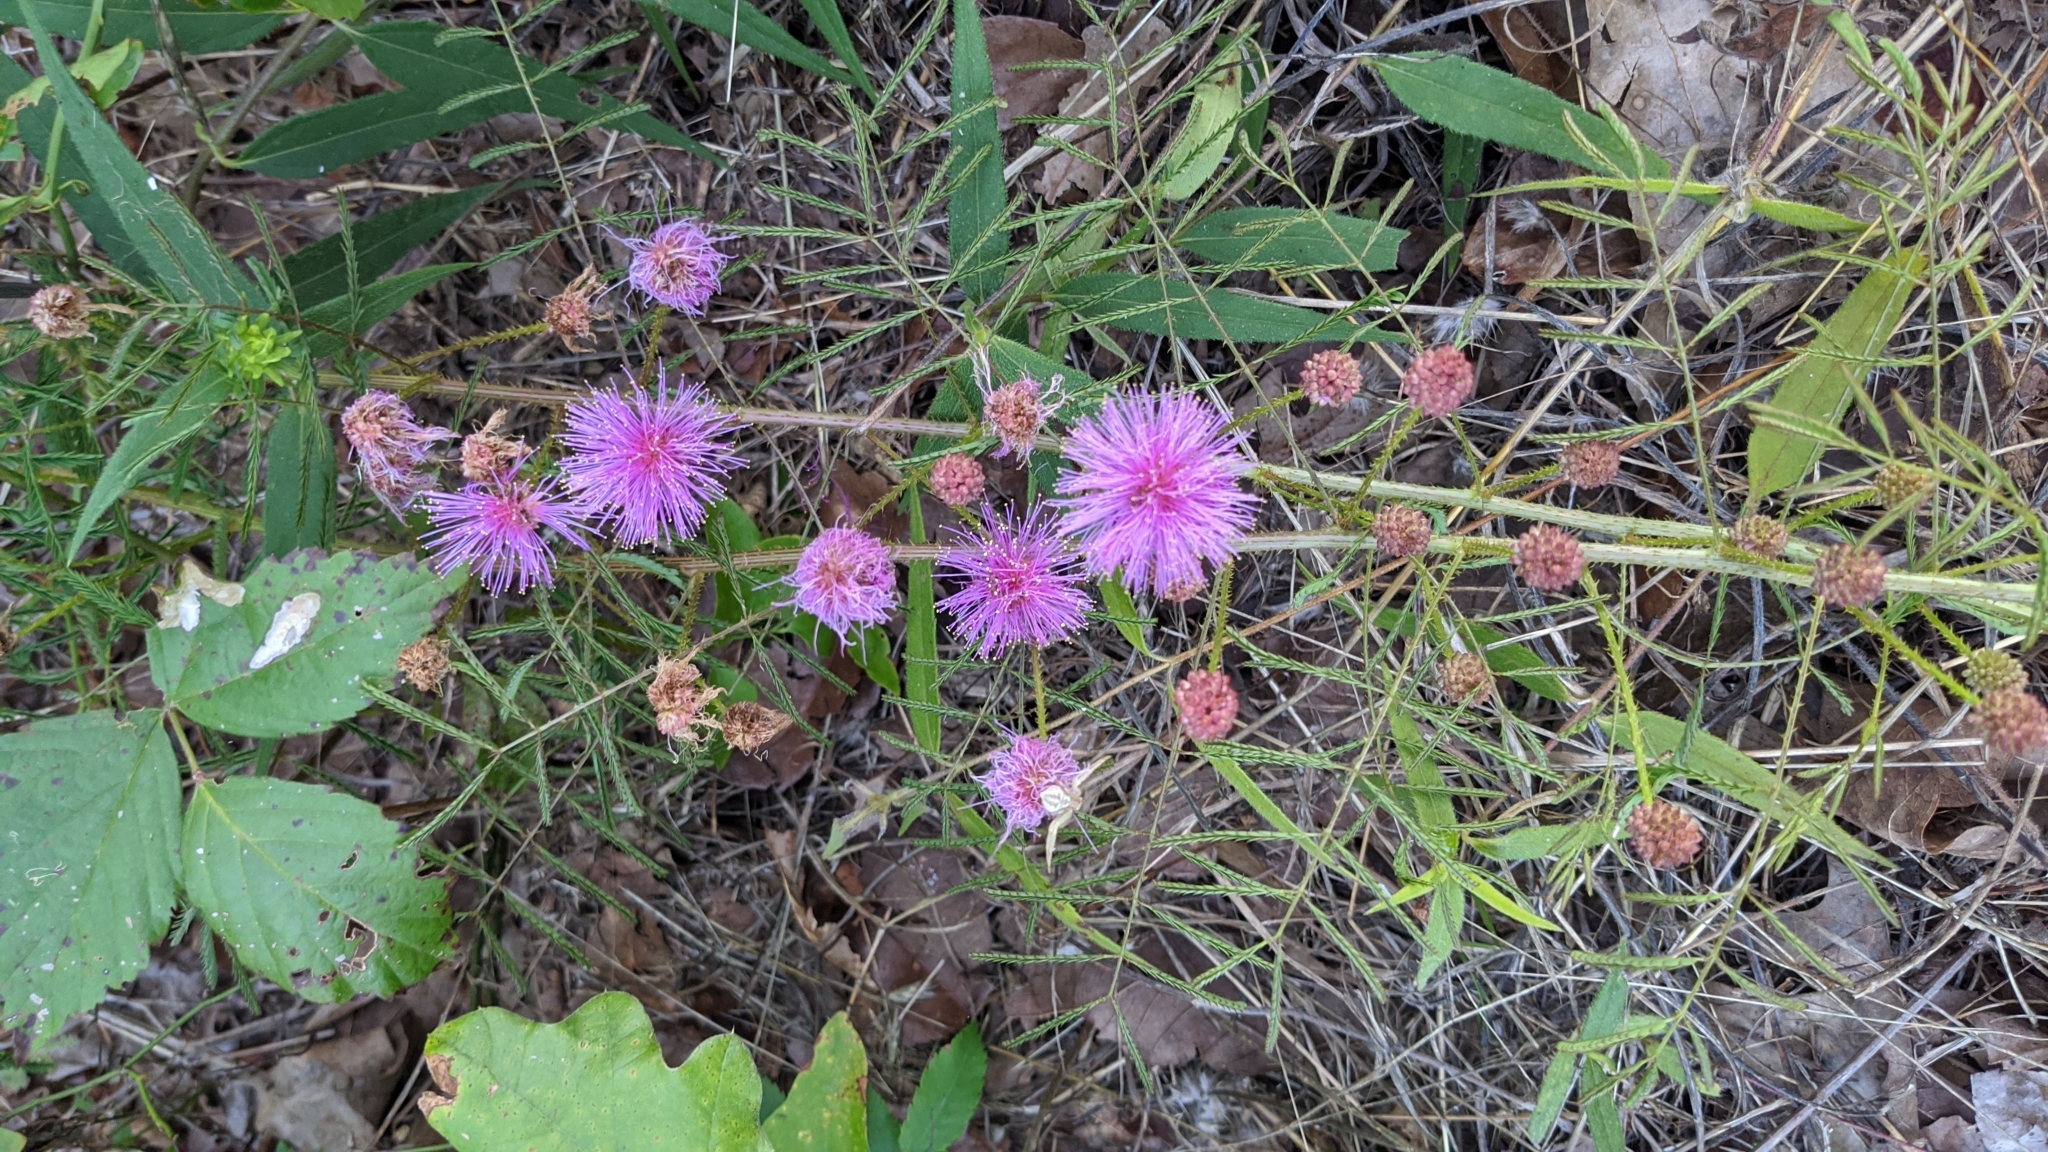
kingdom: Plantae
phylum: Tracheophyta
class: Magnoliopsida
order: Fabales
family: Fabaceae
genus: Mimosa
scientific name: Mimosa quadrivalvis
